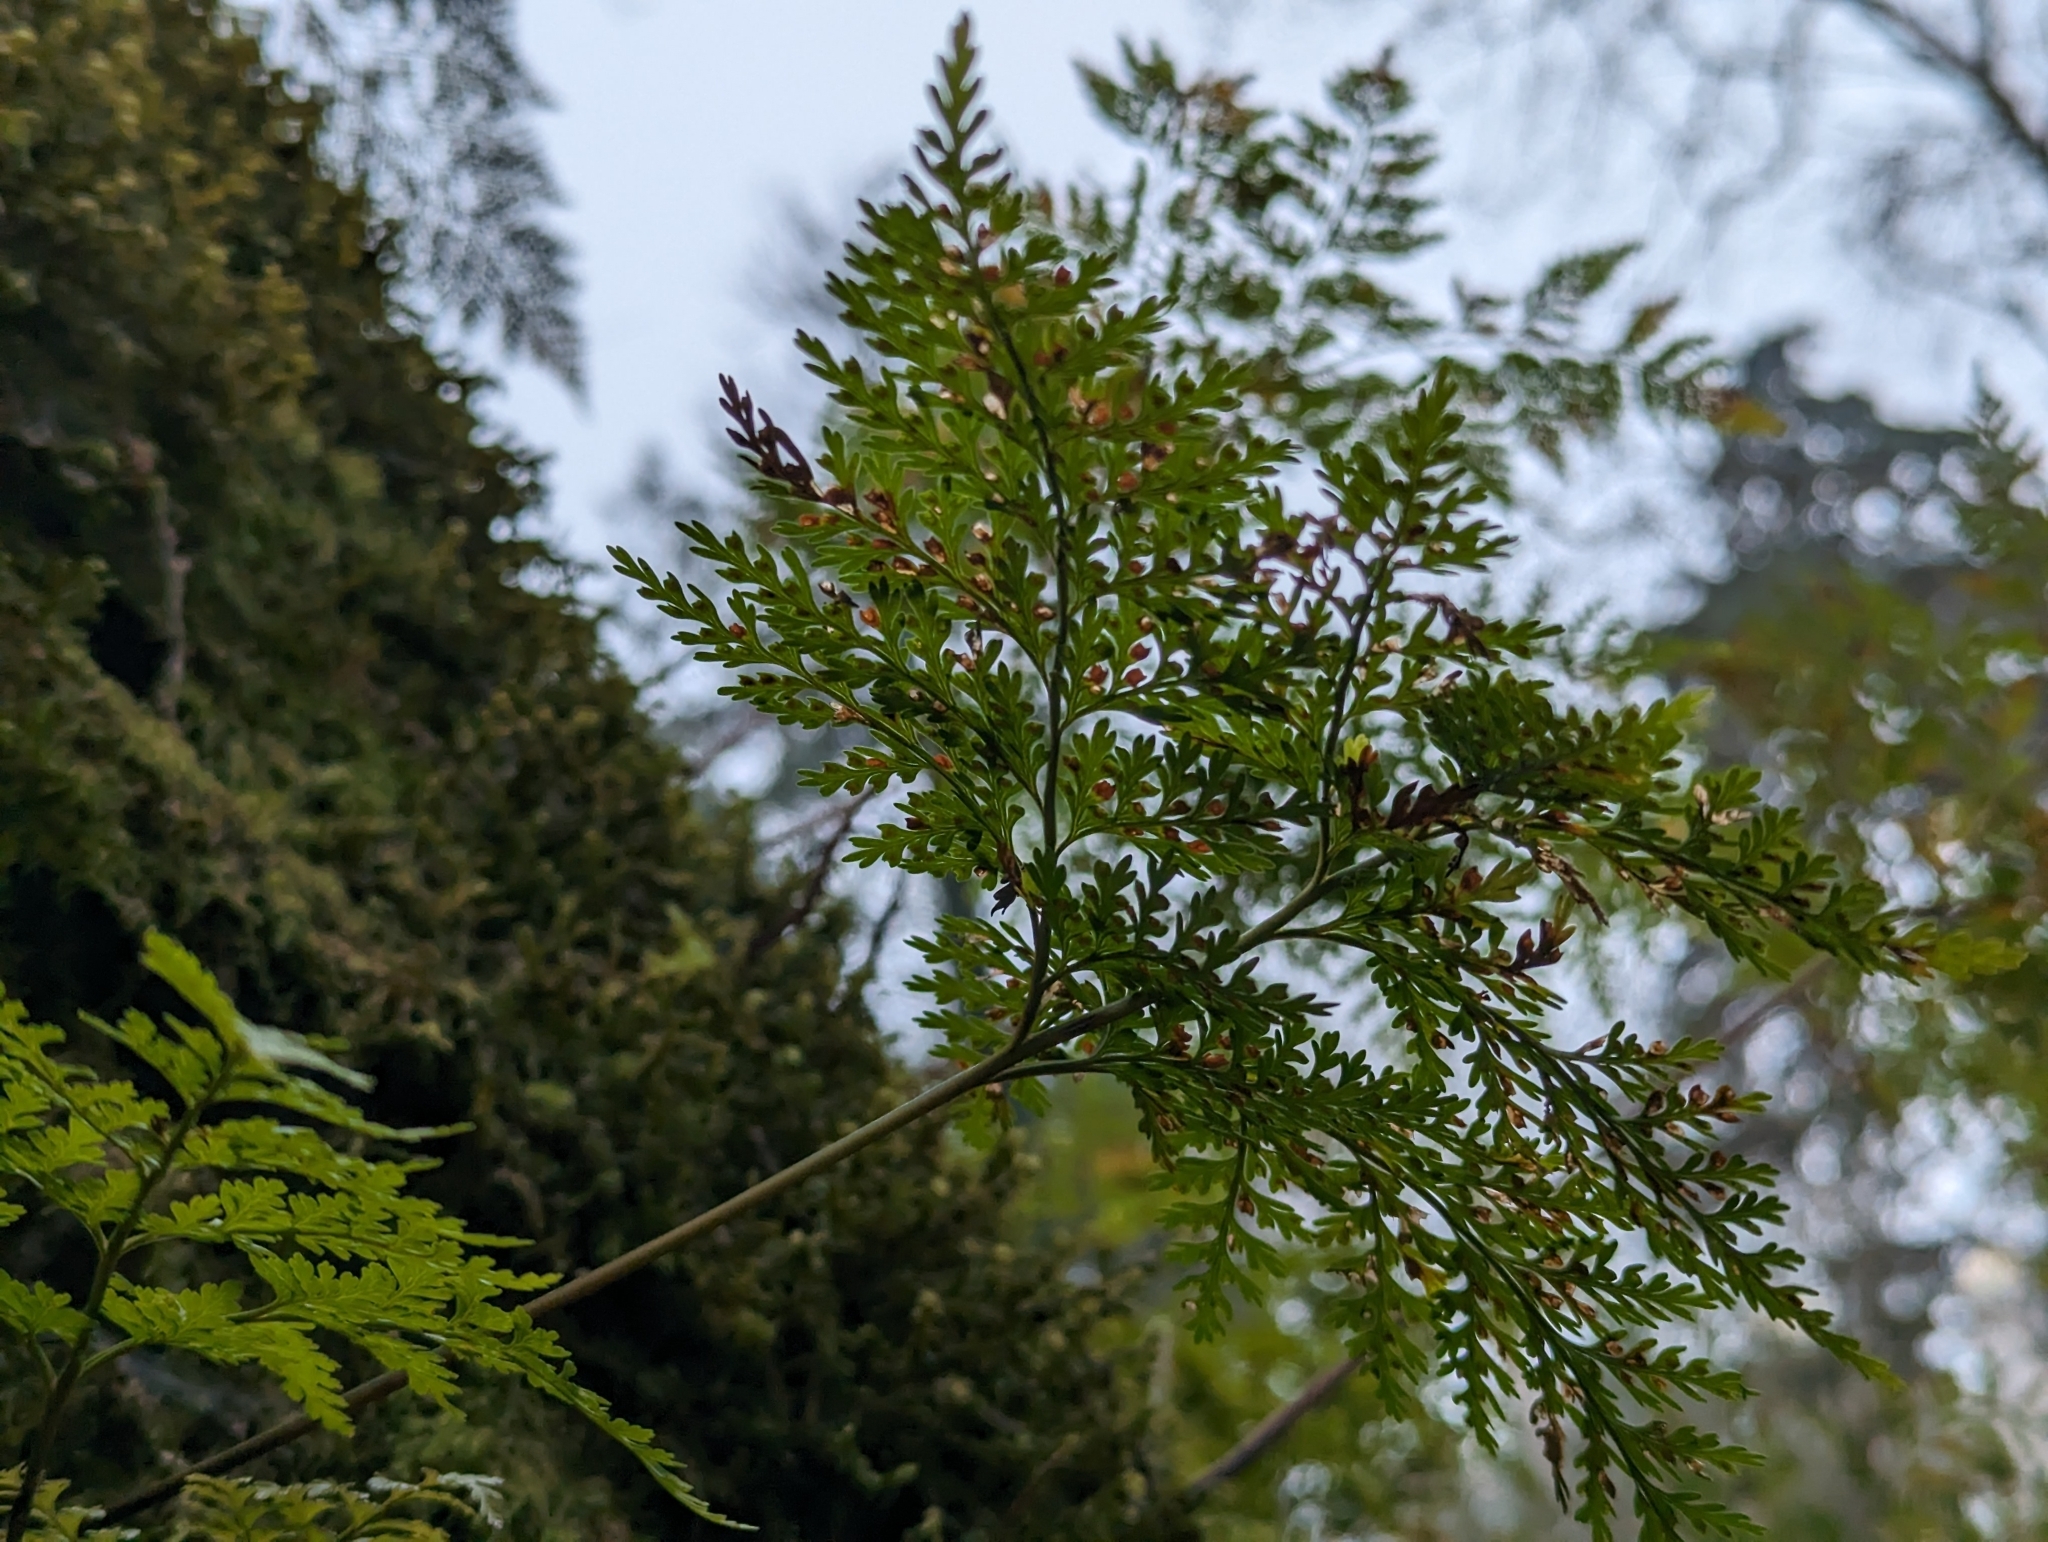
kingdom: Plantae
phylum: Tracheophyta
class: Polypodiopsida
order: Polypodiales
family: Davalliaceae
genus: Davallia
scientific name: Davallia canariensis
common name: Hare's-foot fern
